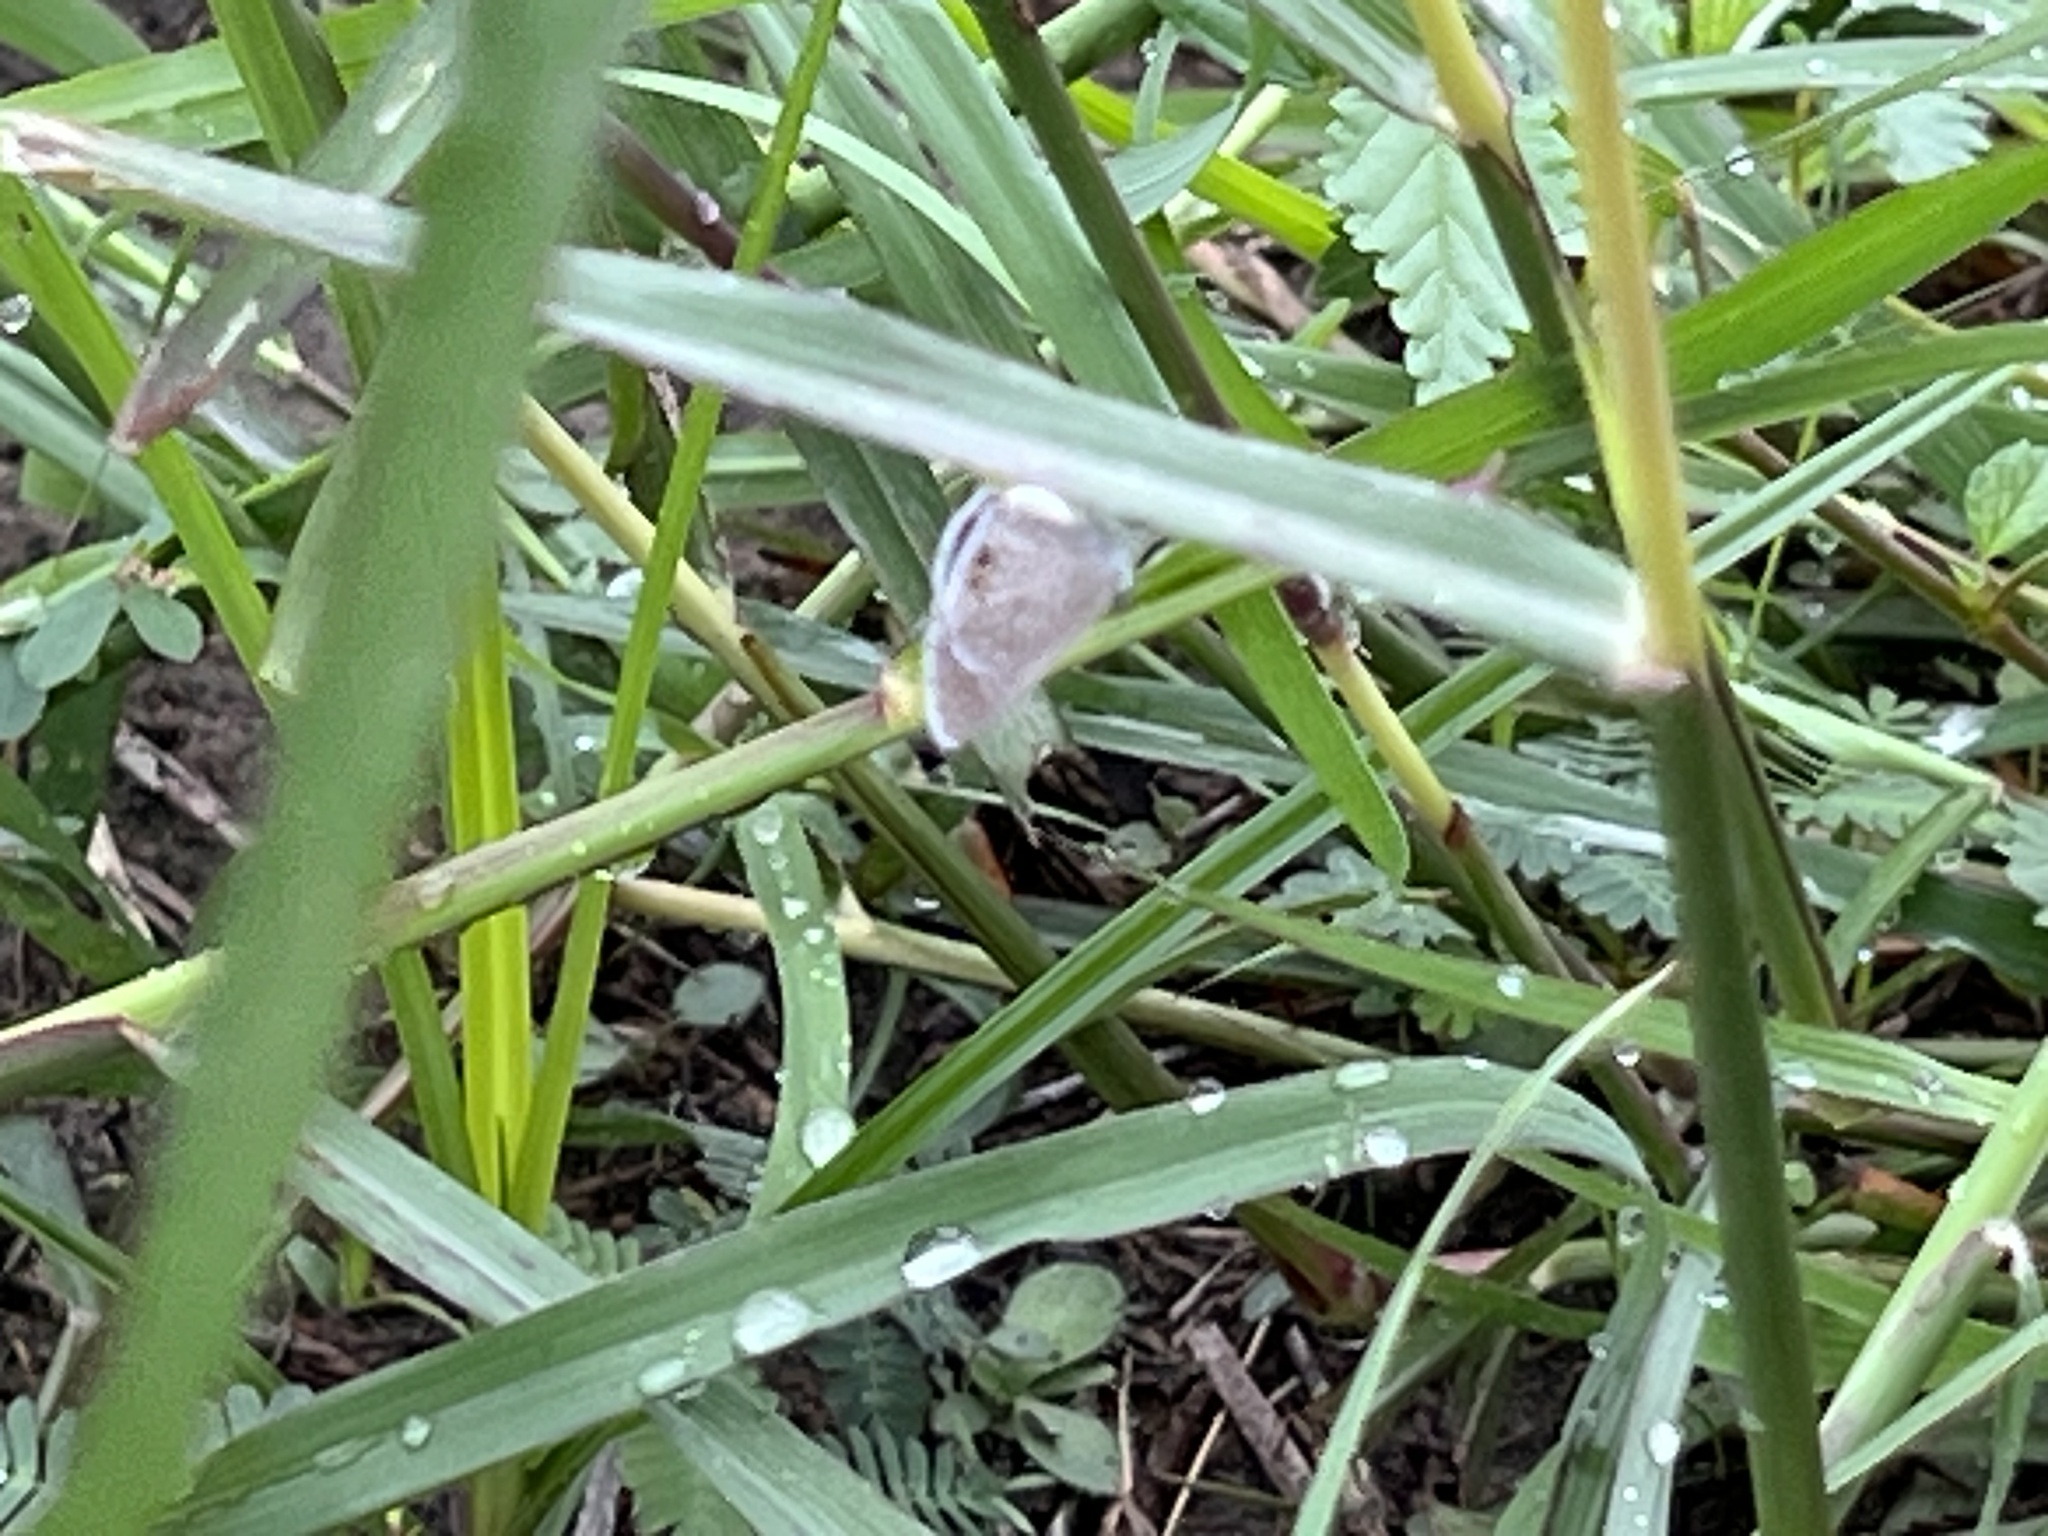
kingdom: Animalia
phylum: Arthropoda
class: Insecta
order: Lepidoptera
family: Lycaenidae
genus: Hemiargus
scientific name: Hemiargus ceraunus
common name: Ceraunus blue
